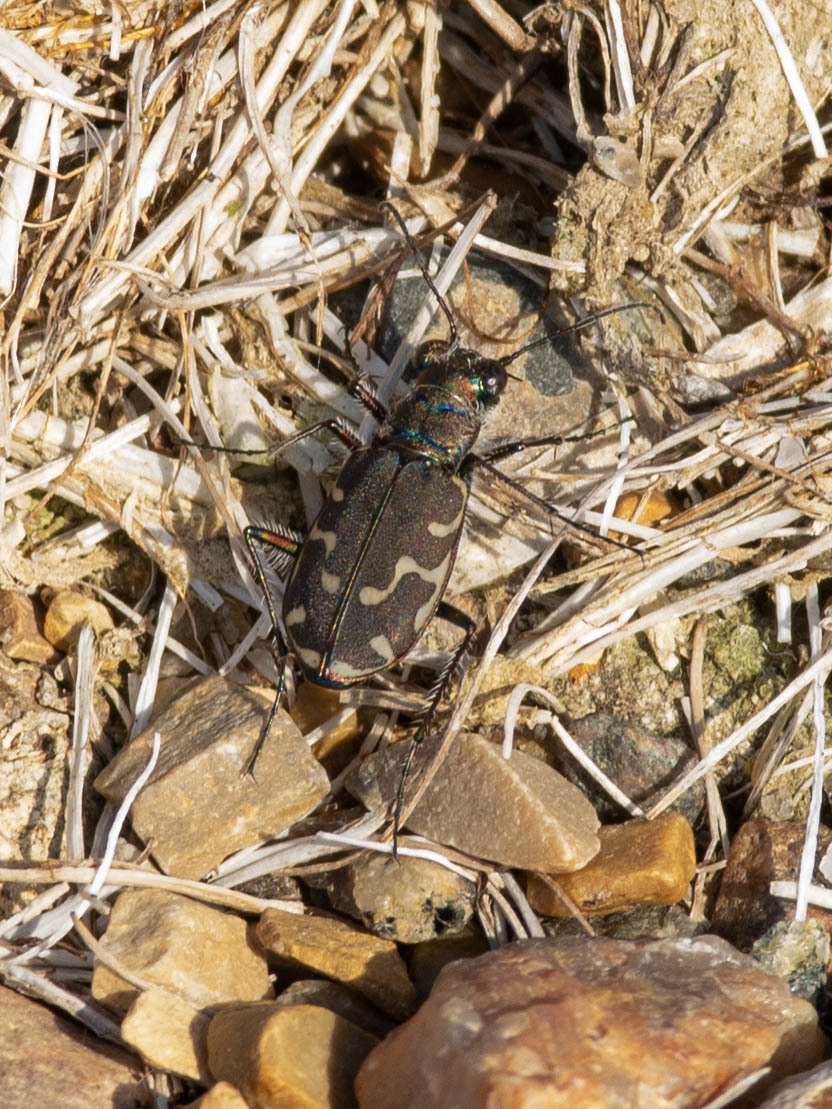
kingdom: Animalia
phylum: Arthropoda
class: Insecta
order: Coleoptera
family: Carabidae
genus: Cicindela
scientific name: Cicindela duodecimguttata
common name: Twelve-spotted tiger beetle
